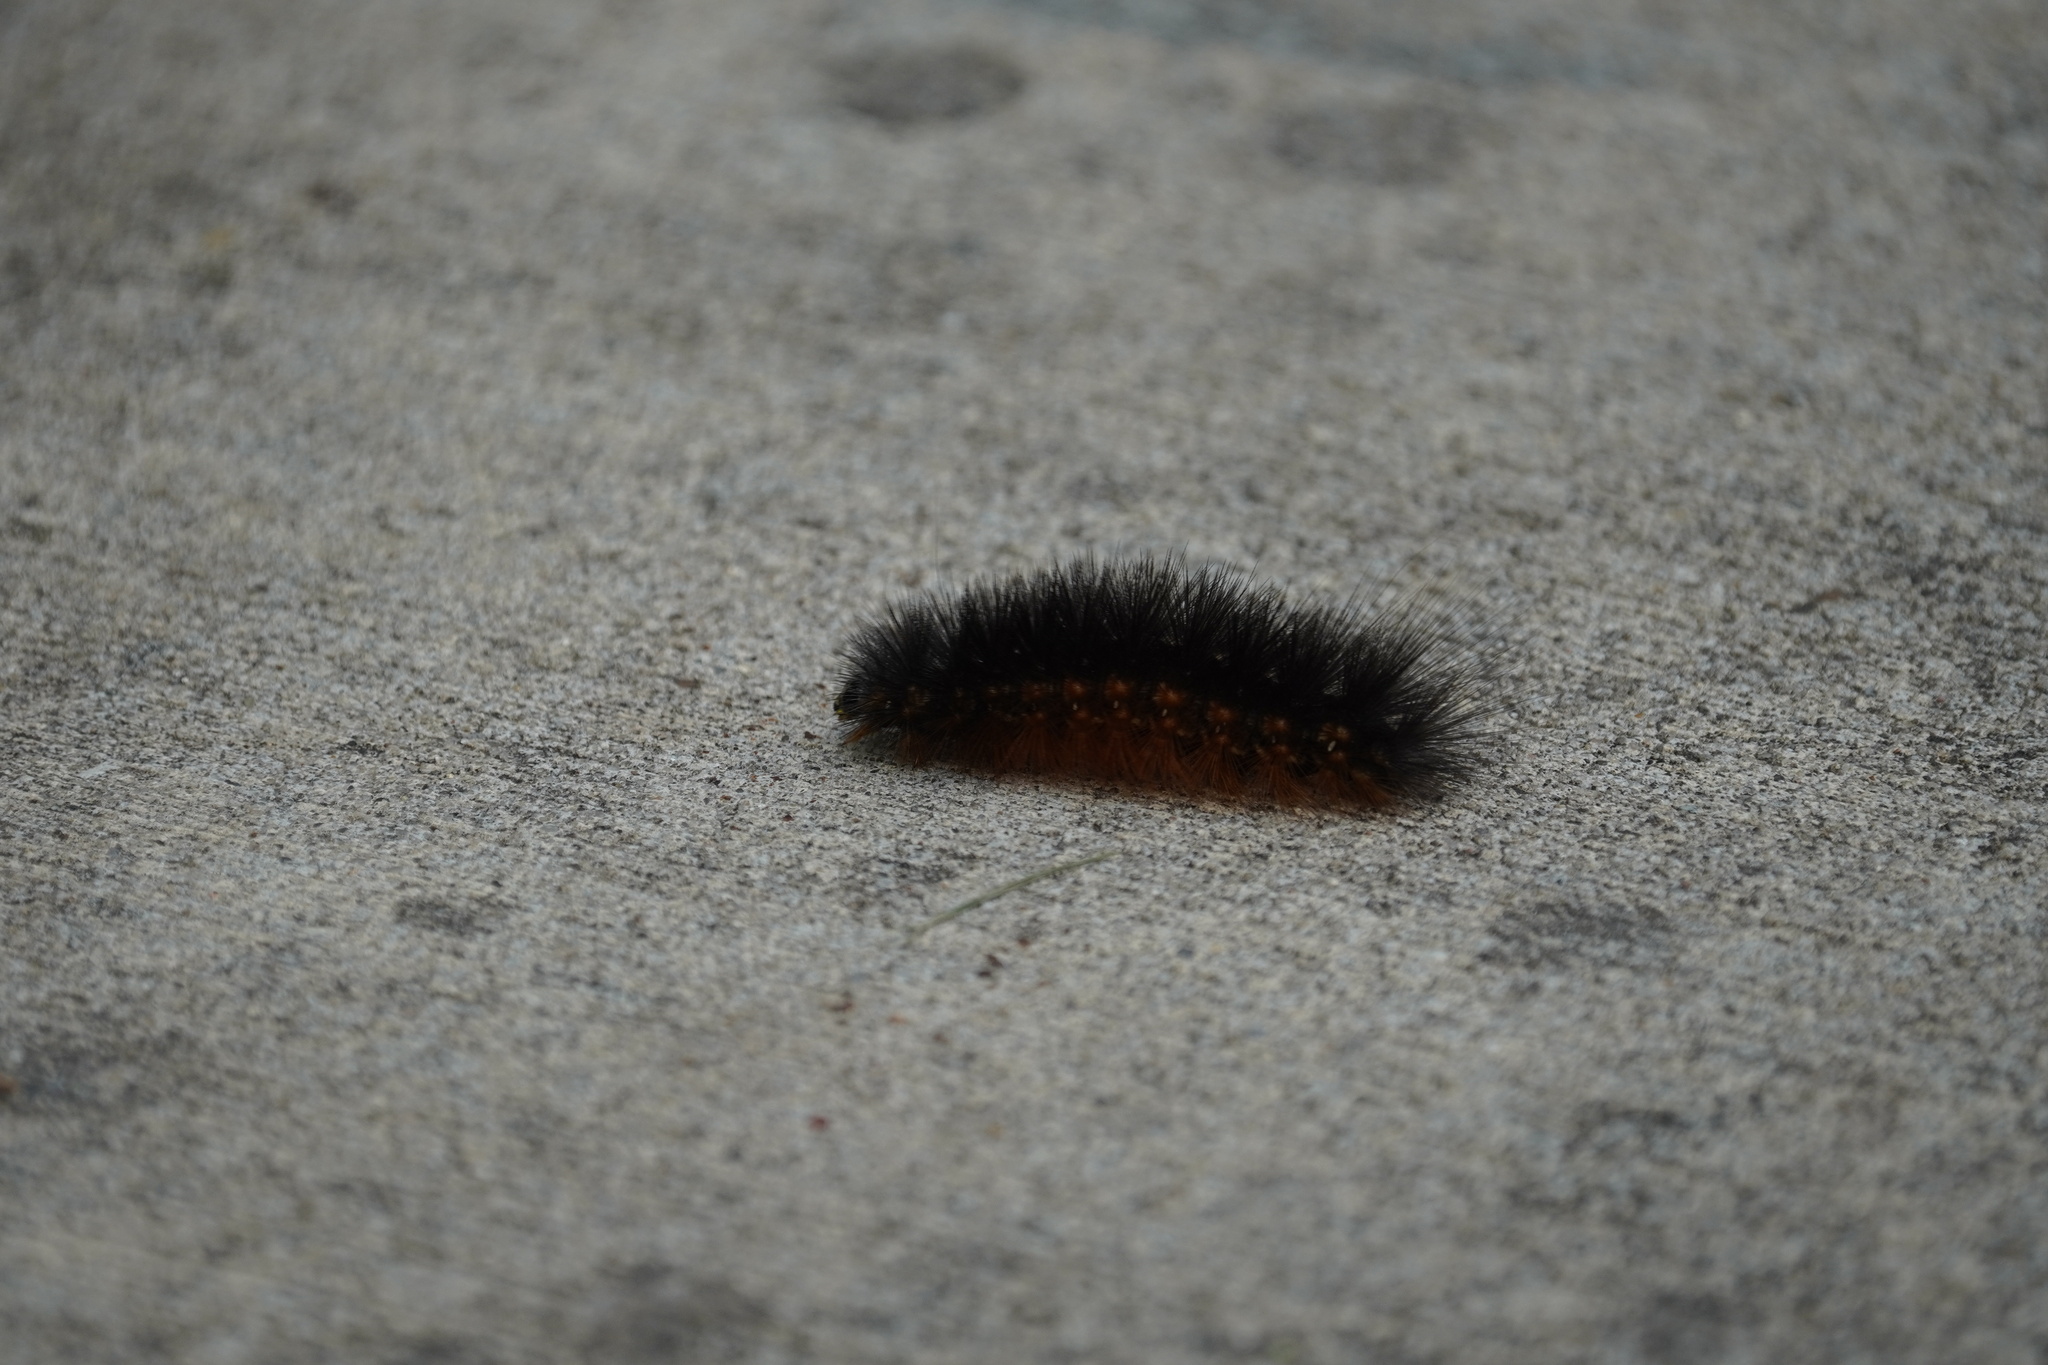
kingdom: Animalia
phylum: Arthropoda
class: Insecta
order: Lepidoptera
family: Erebidae
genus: Estigmene
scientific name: Estigmene acrea
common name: Salt marsh moth
